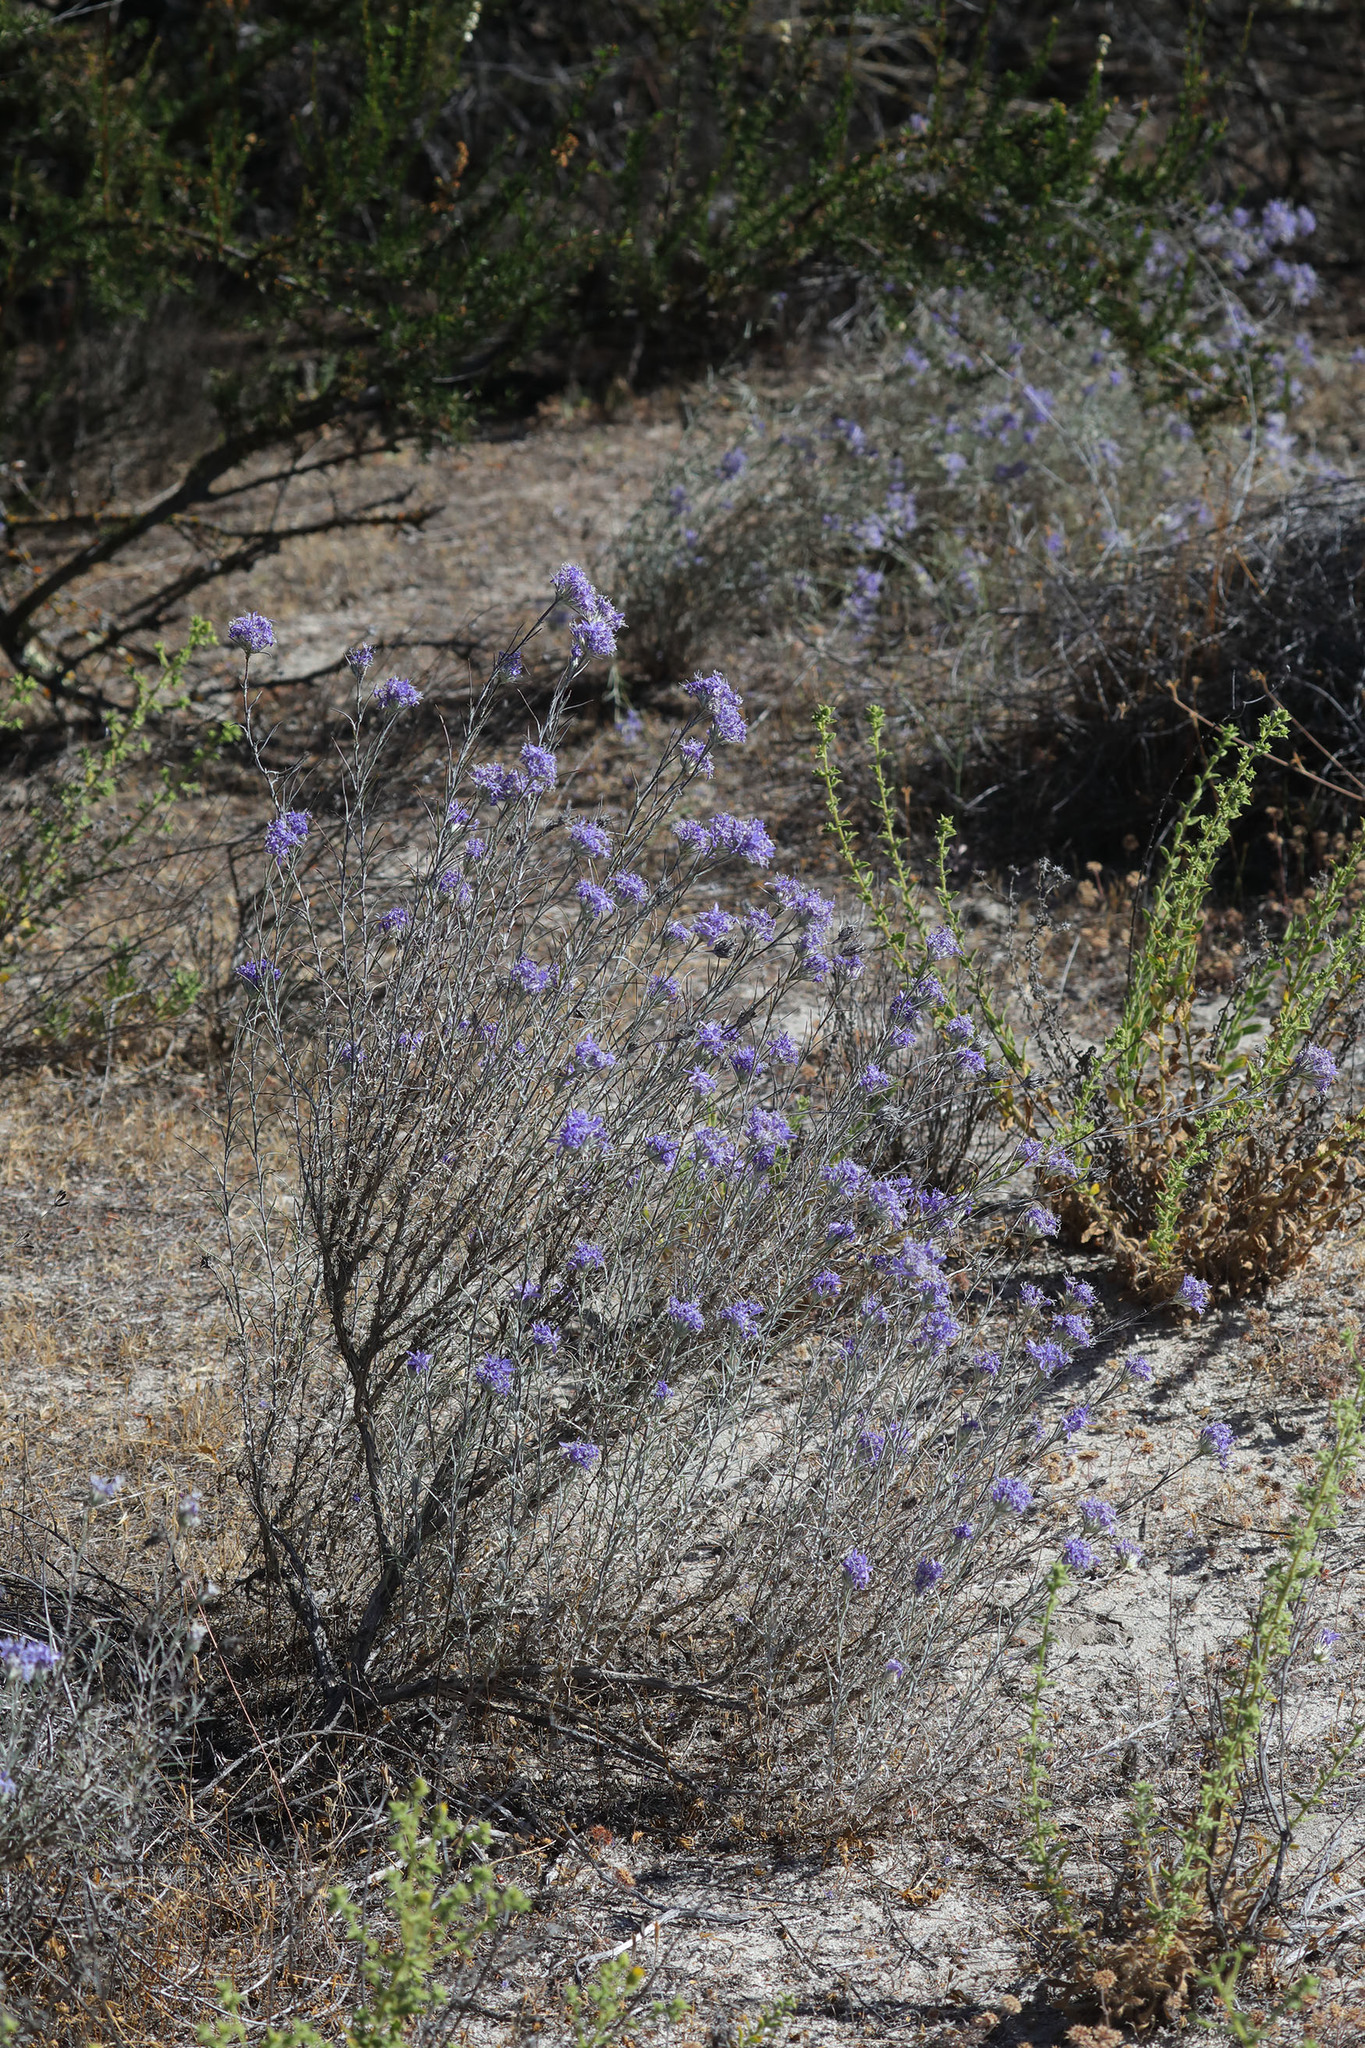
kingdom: Plantae
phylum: Tracheophyta
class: Magnoliopsida
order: Ericales
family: Polemoniaceae
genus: Eriastrum
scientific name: Eriastrum densifolium
